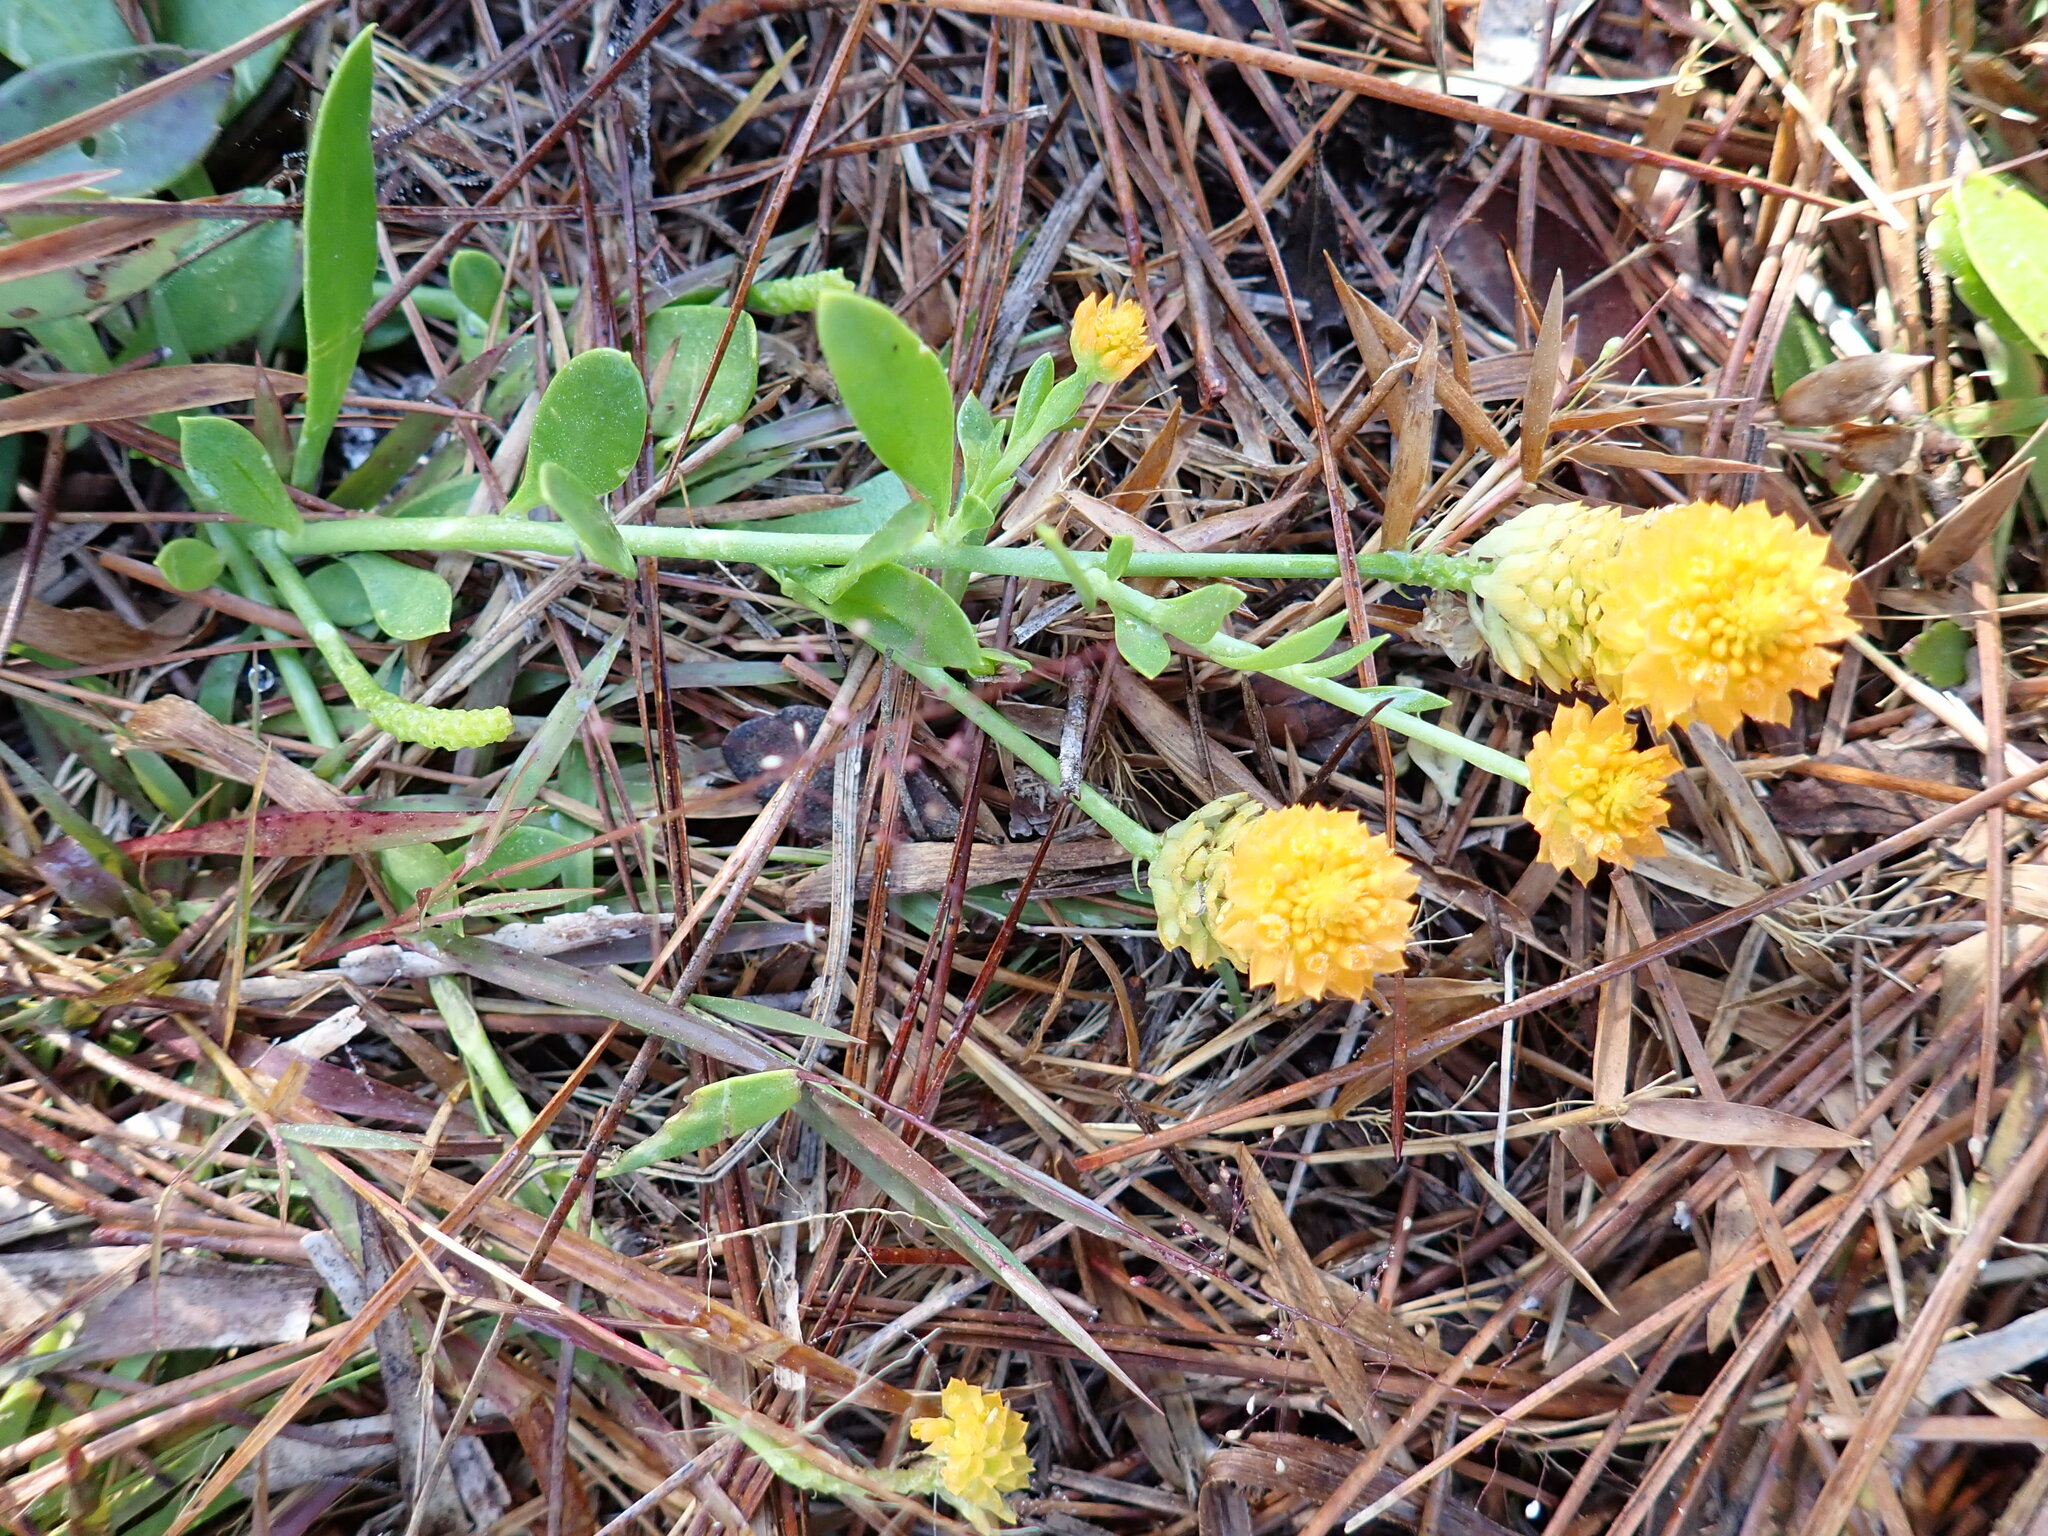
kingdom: Plantae
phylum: Tracheophyta
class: Magnoliopsida
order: Fabales
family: Polygalaceae
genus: Polygala
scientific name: Polygala lutea
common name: Orange milkwort
